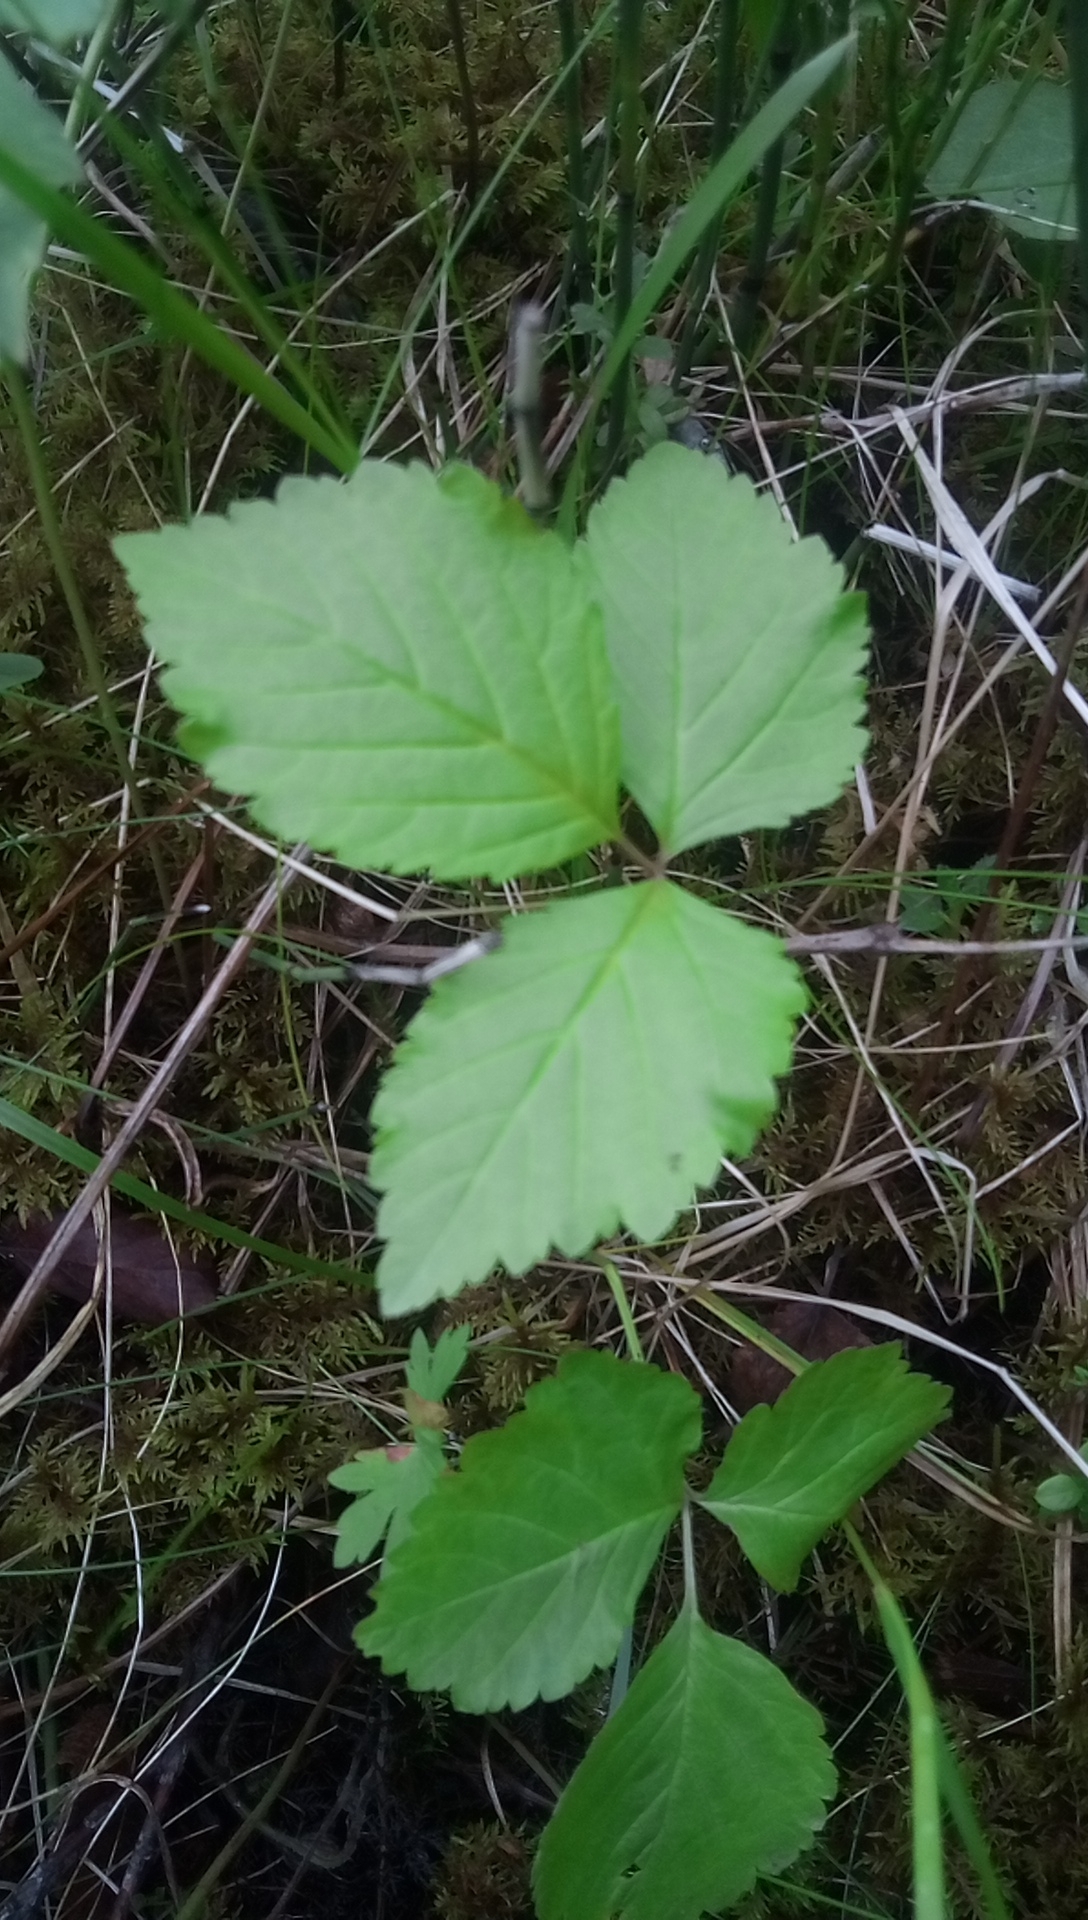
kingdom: Plantae
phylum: Tracheophyta
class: Magnoliopsida
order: Rosales
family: Rosaceae
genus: Rubus
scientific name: Rubus saxatilis
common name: Stone bramble
